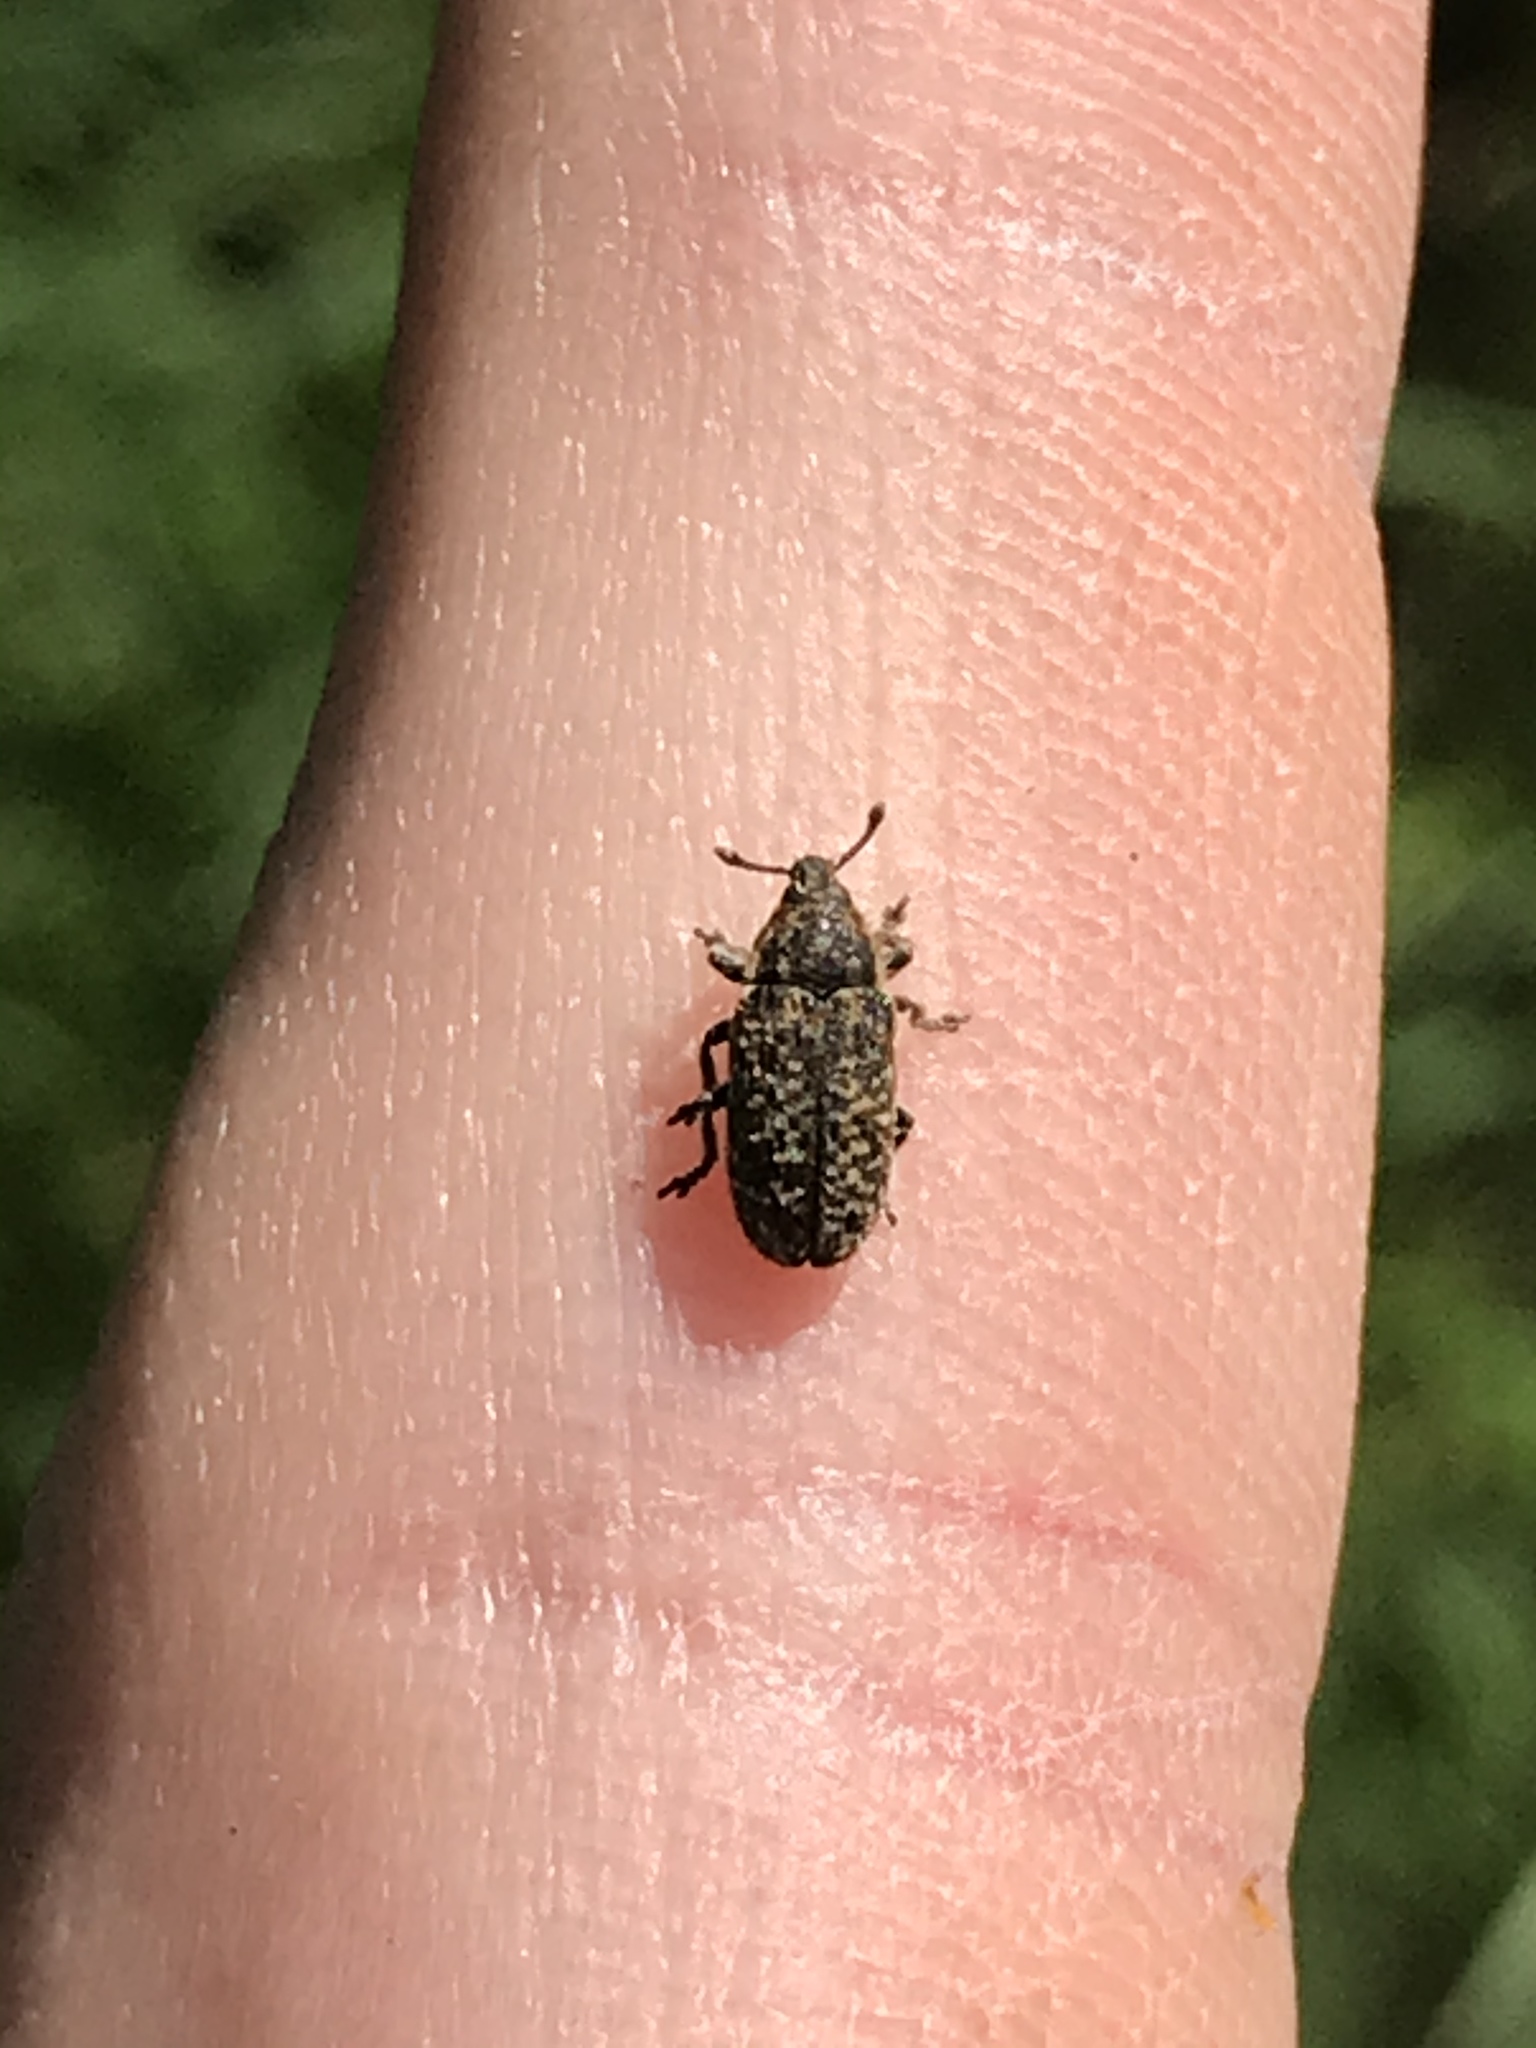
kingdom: Animalia
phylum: Arthropoda
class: Insecta
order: Coleoptera
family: Curculionidae
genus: Rhinocyllus
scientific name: Rhinocyllus conicus
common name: Weevil
